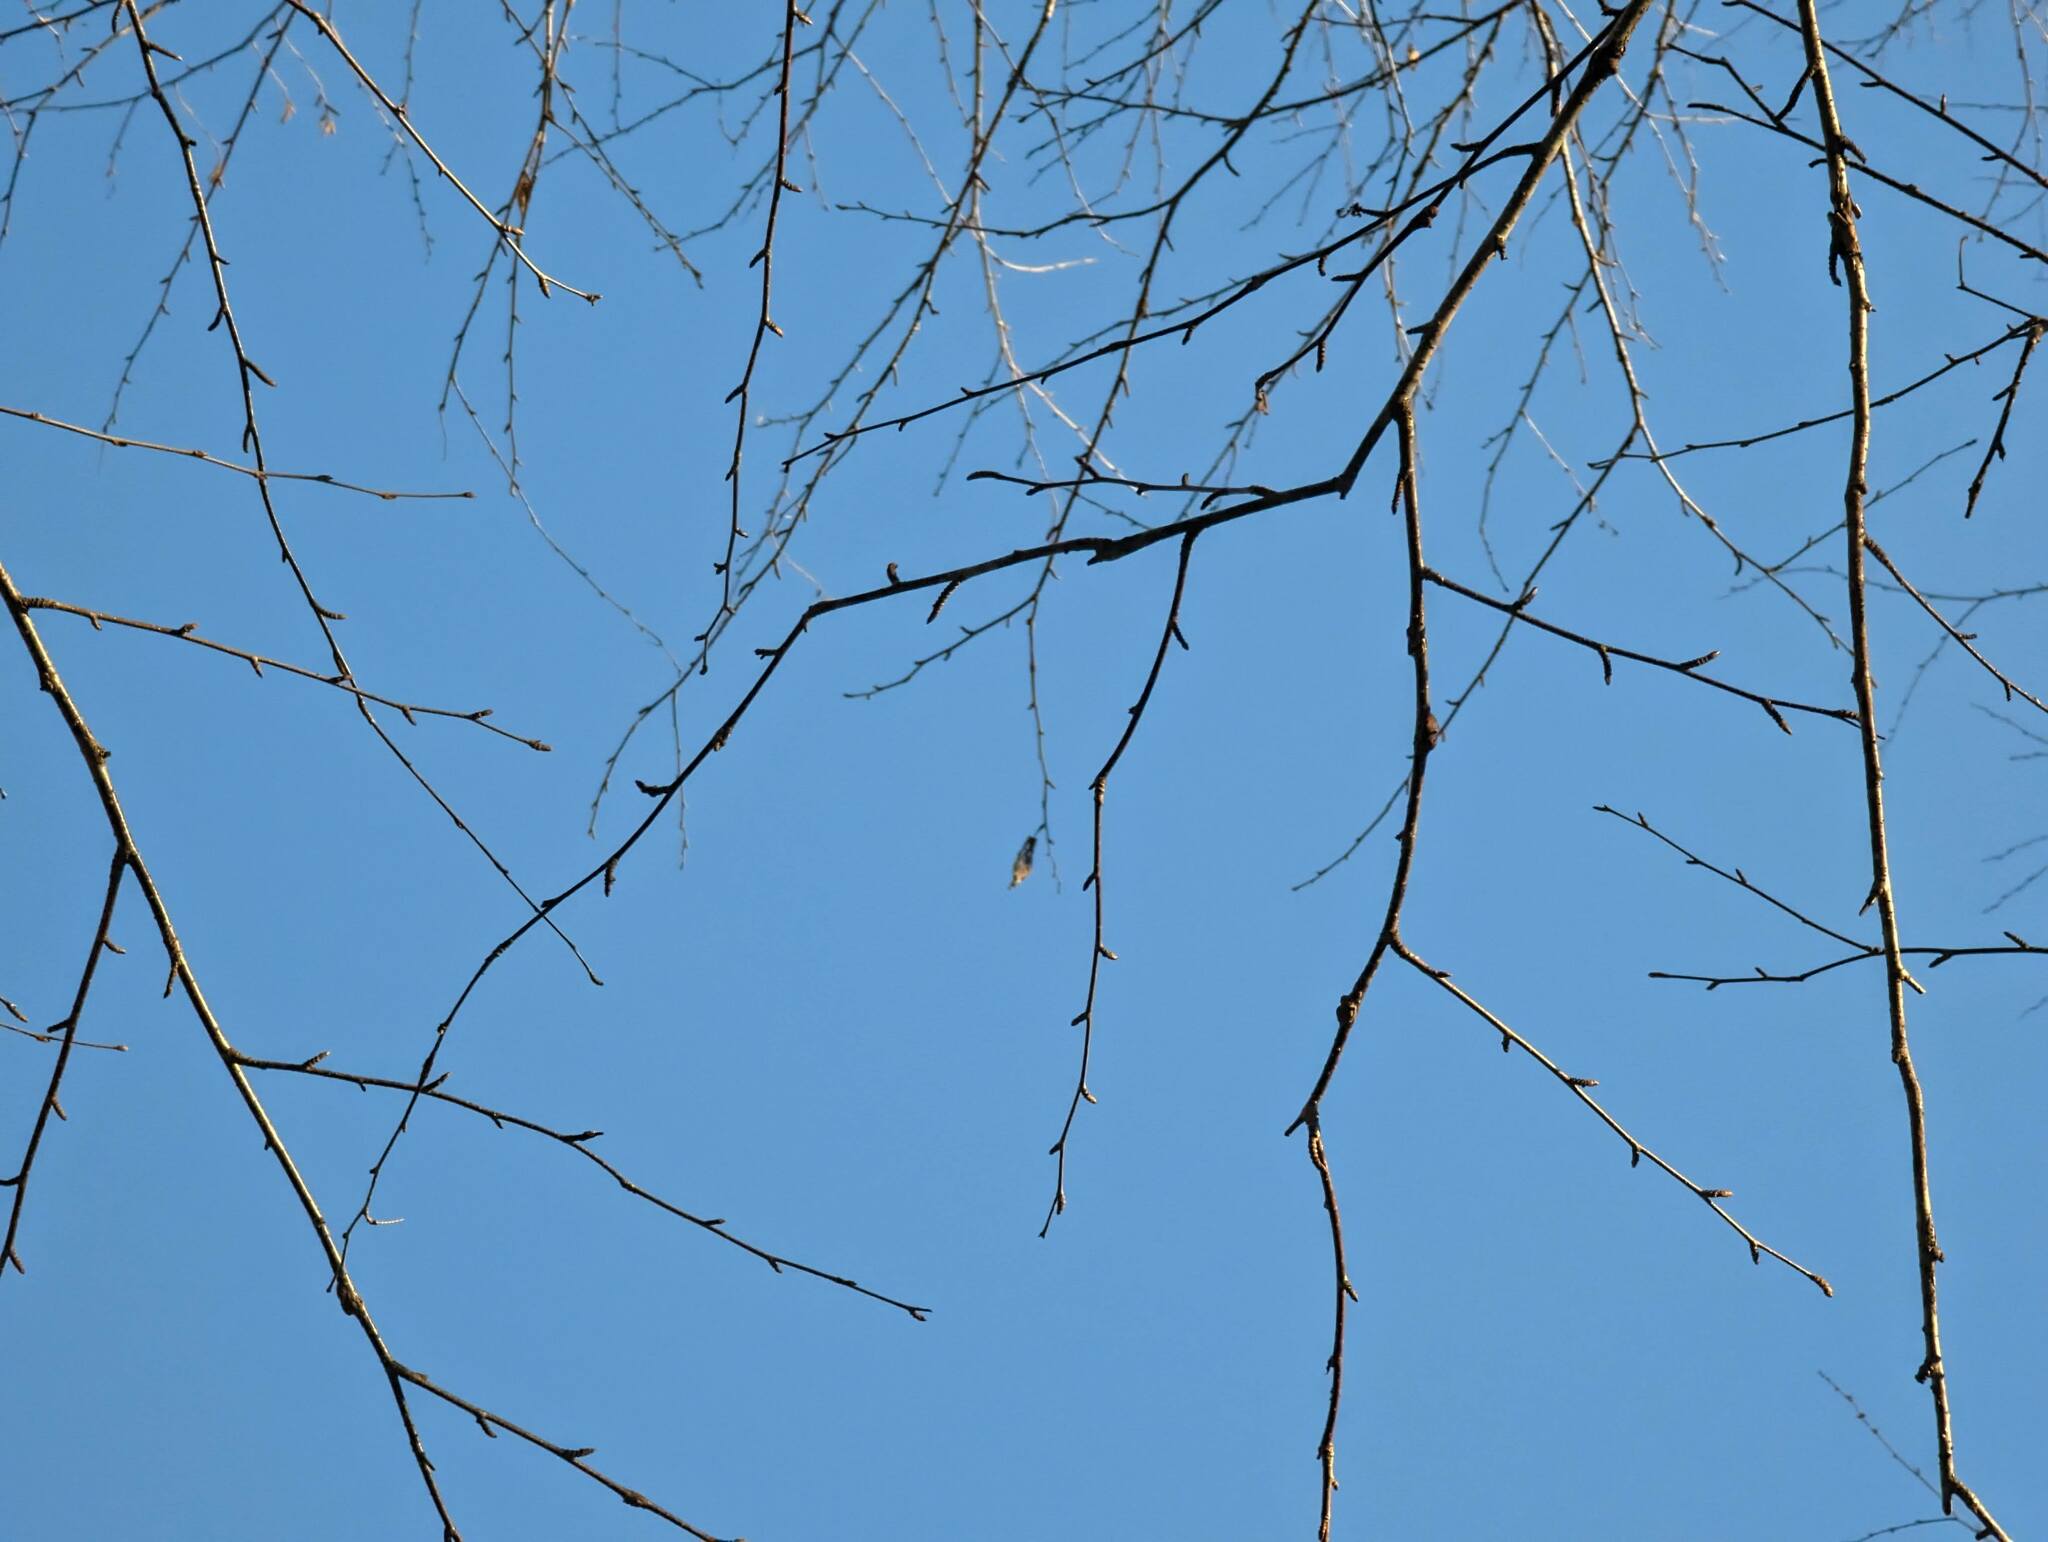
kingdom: Plantae
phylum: Tracheophyta
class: Magnoliopsida
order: Fagales
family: Betulaceae
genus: Betula
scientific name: Betula alleghaniensis
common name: Yellow birch
